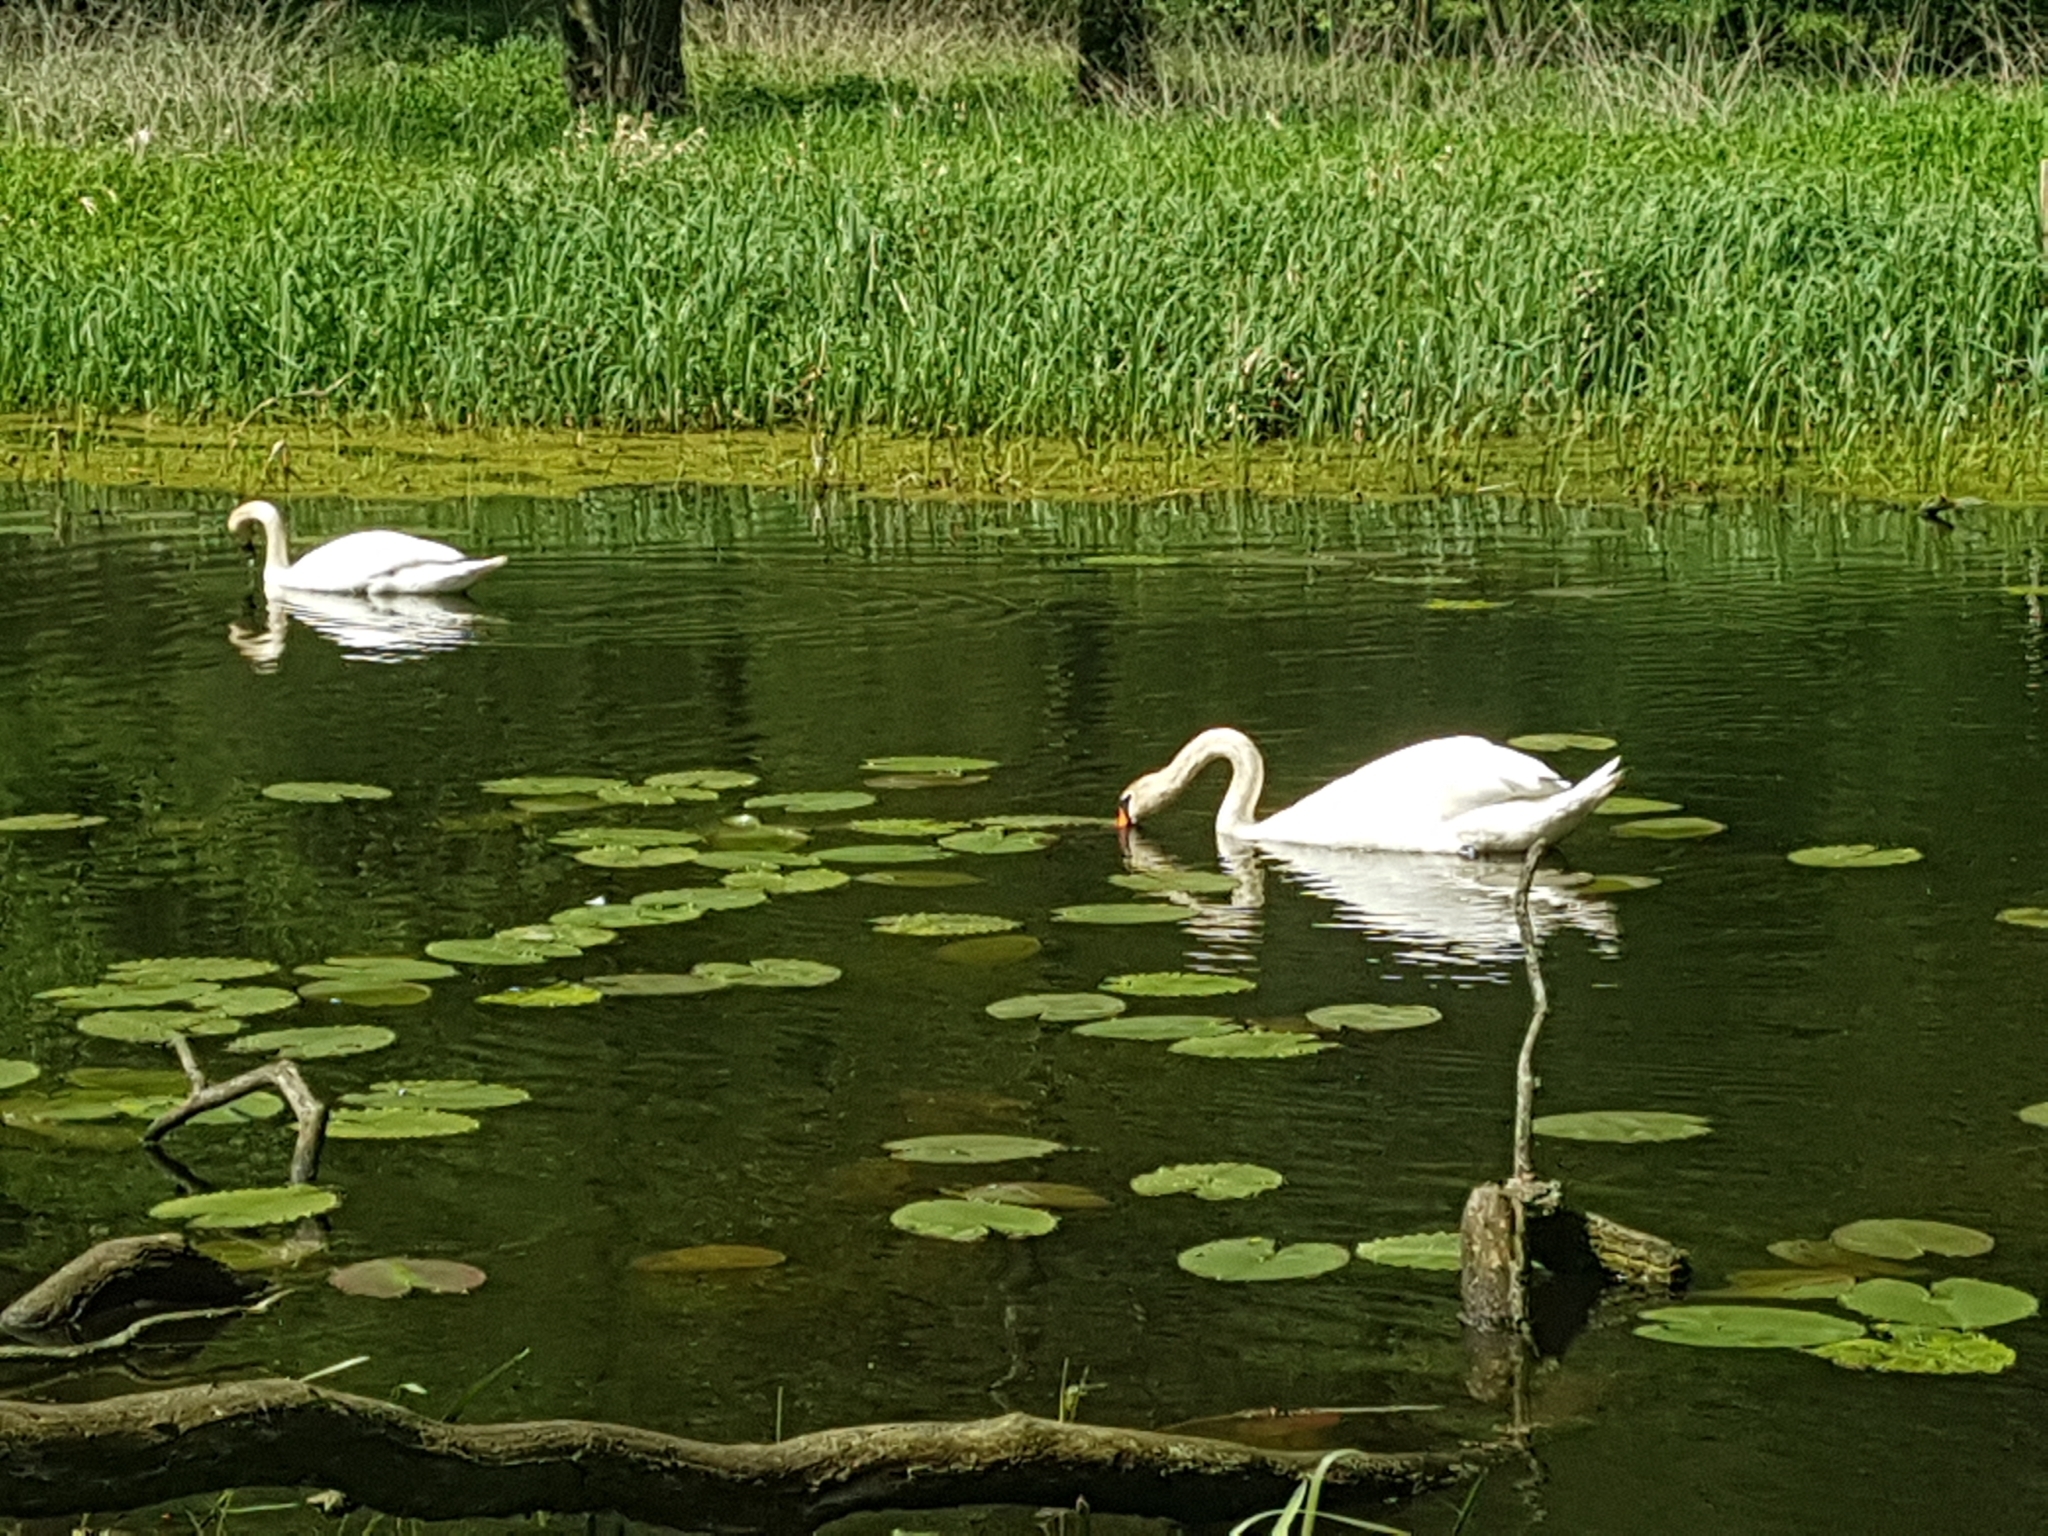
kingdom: Animalia
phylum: Chordata
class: Aves
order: Anseriformes
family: Anatidae
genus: Cygnus
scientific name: Cygnus olor
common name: Mute swan
